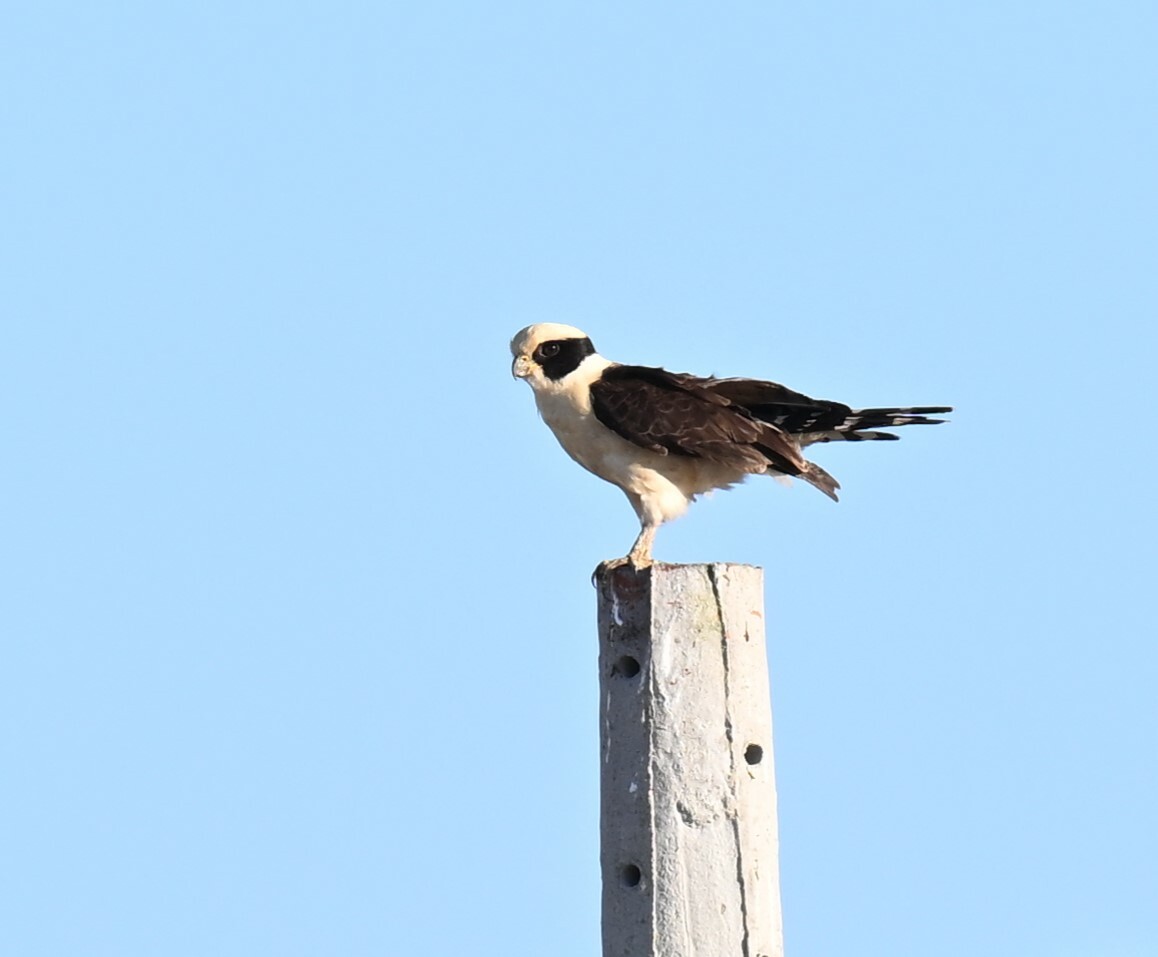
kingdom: Animalia
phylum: Chordata
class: Aves
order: Falconiformes
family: Falconidae
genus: Herpetotheres
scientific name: Herpetotheres cachinnans
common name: Laughing falcon
